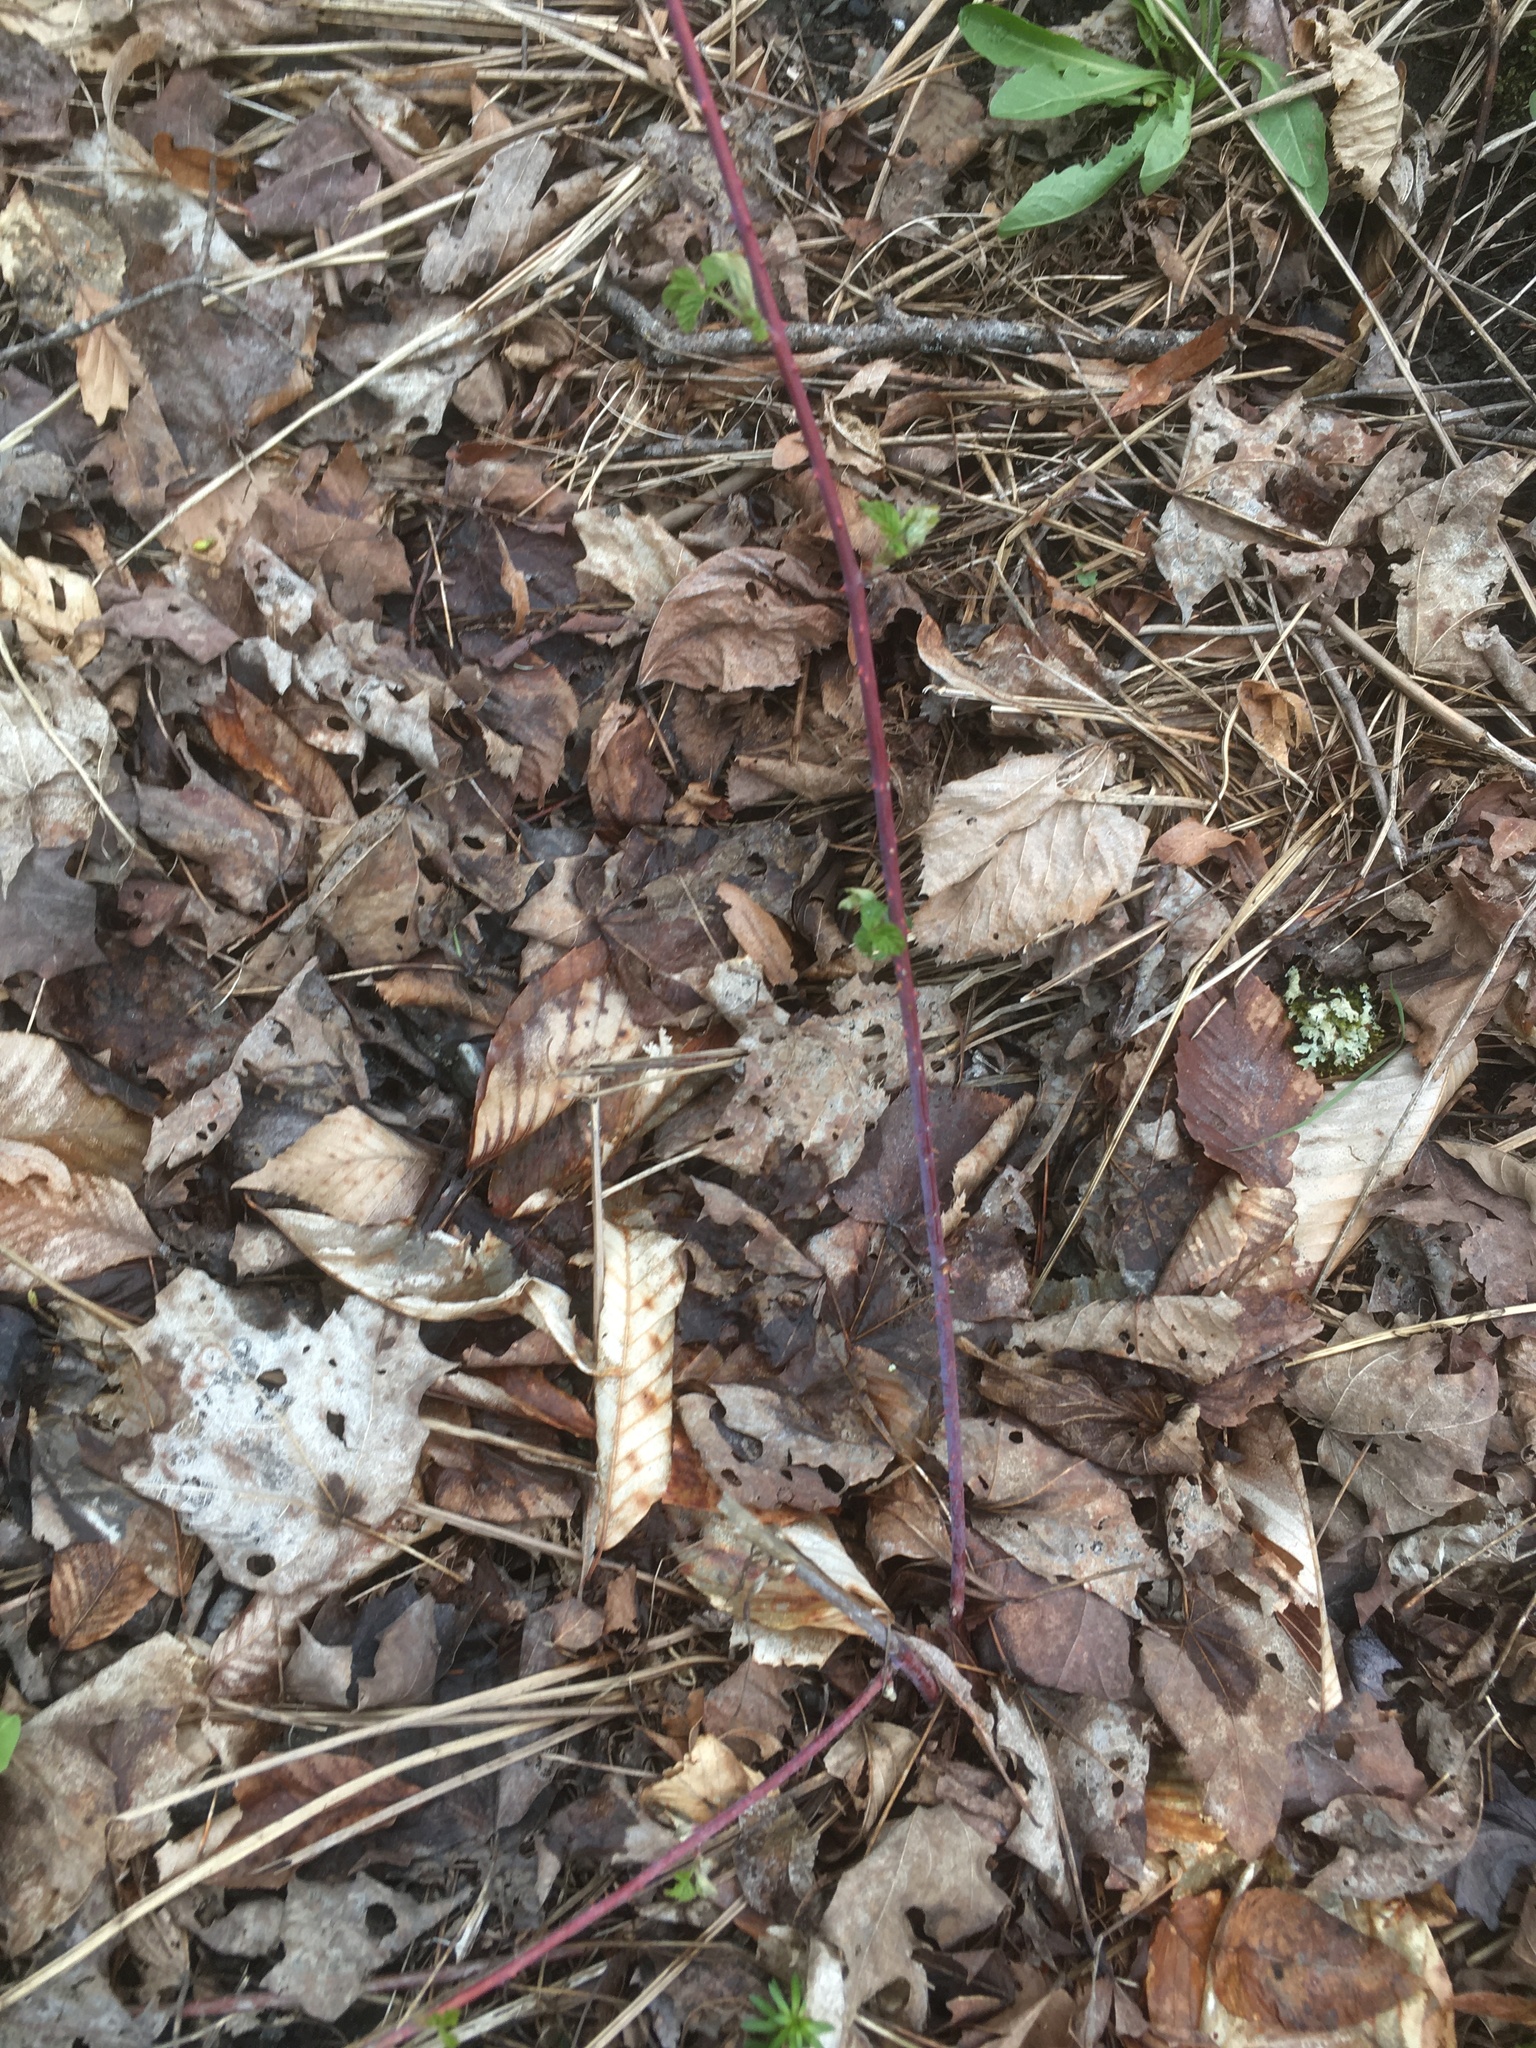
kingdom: Plantae
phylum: Tracheophyta
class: Magnoliopsida
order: Rosales
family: Rosaceae
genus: Rubus
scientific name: Rubus occidentalis
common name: Black raspberry
